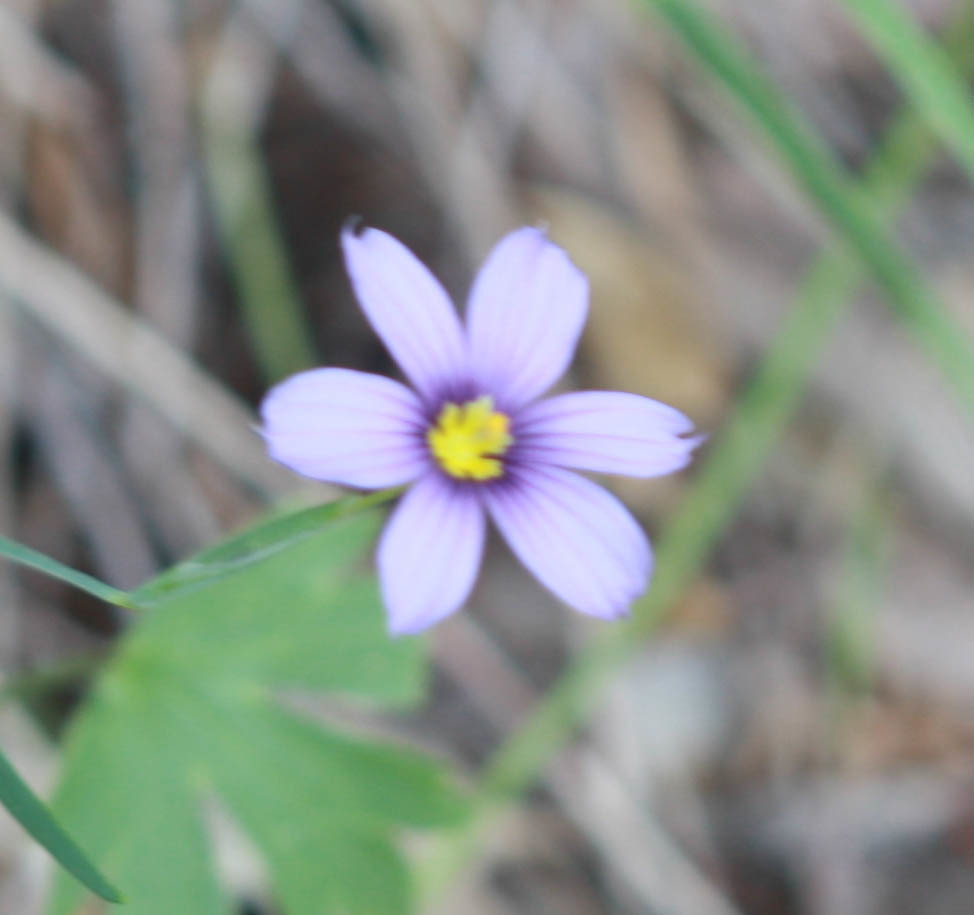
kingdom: Plantae
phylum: Tracheophyta
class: Liliopsida
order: Asparagales
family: Iridaceae
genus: Sisyrinchium
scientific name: Sisyrinchium bellum
